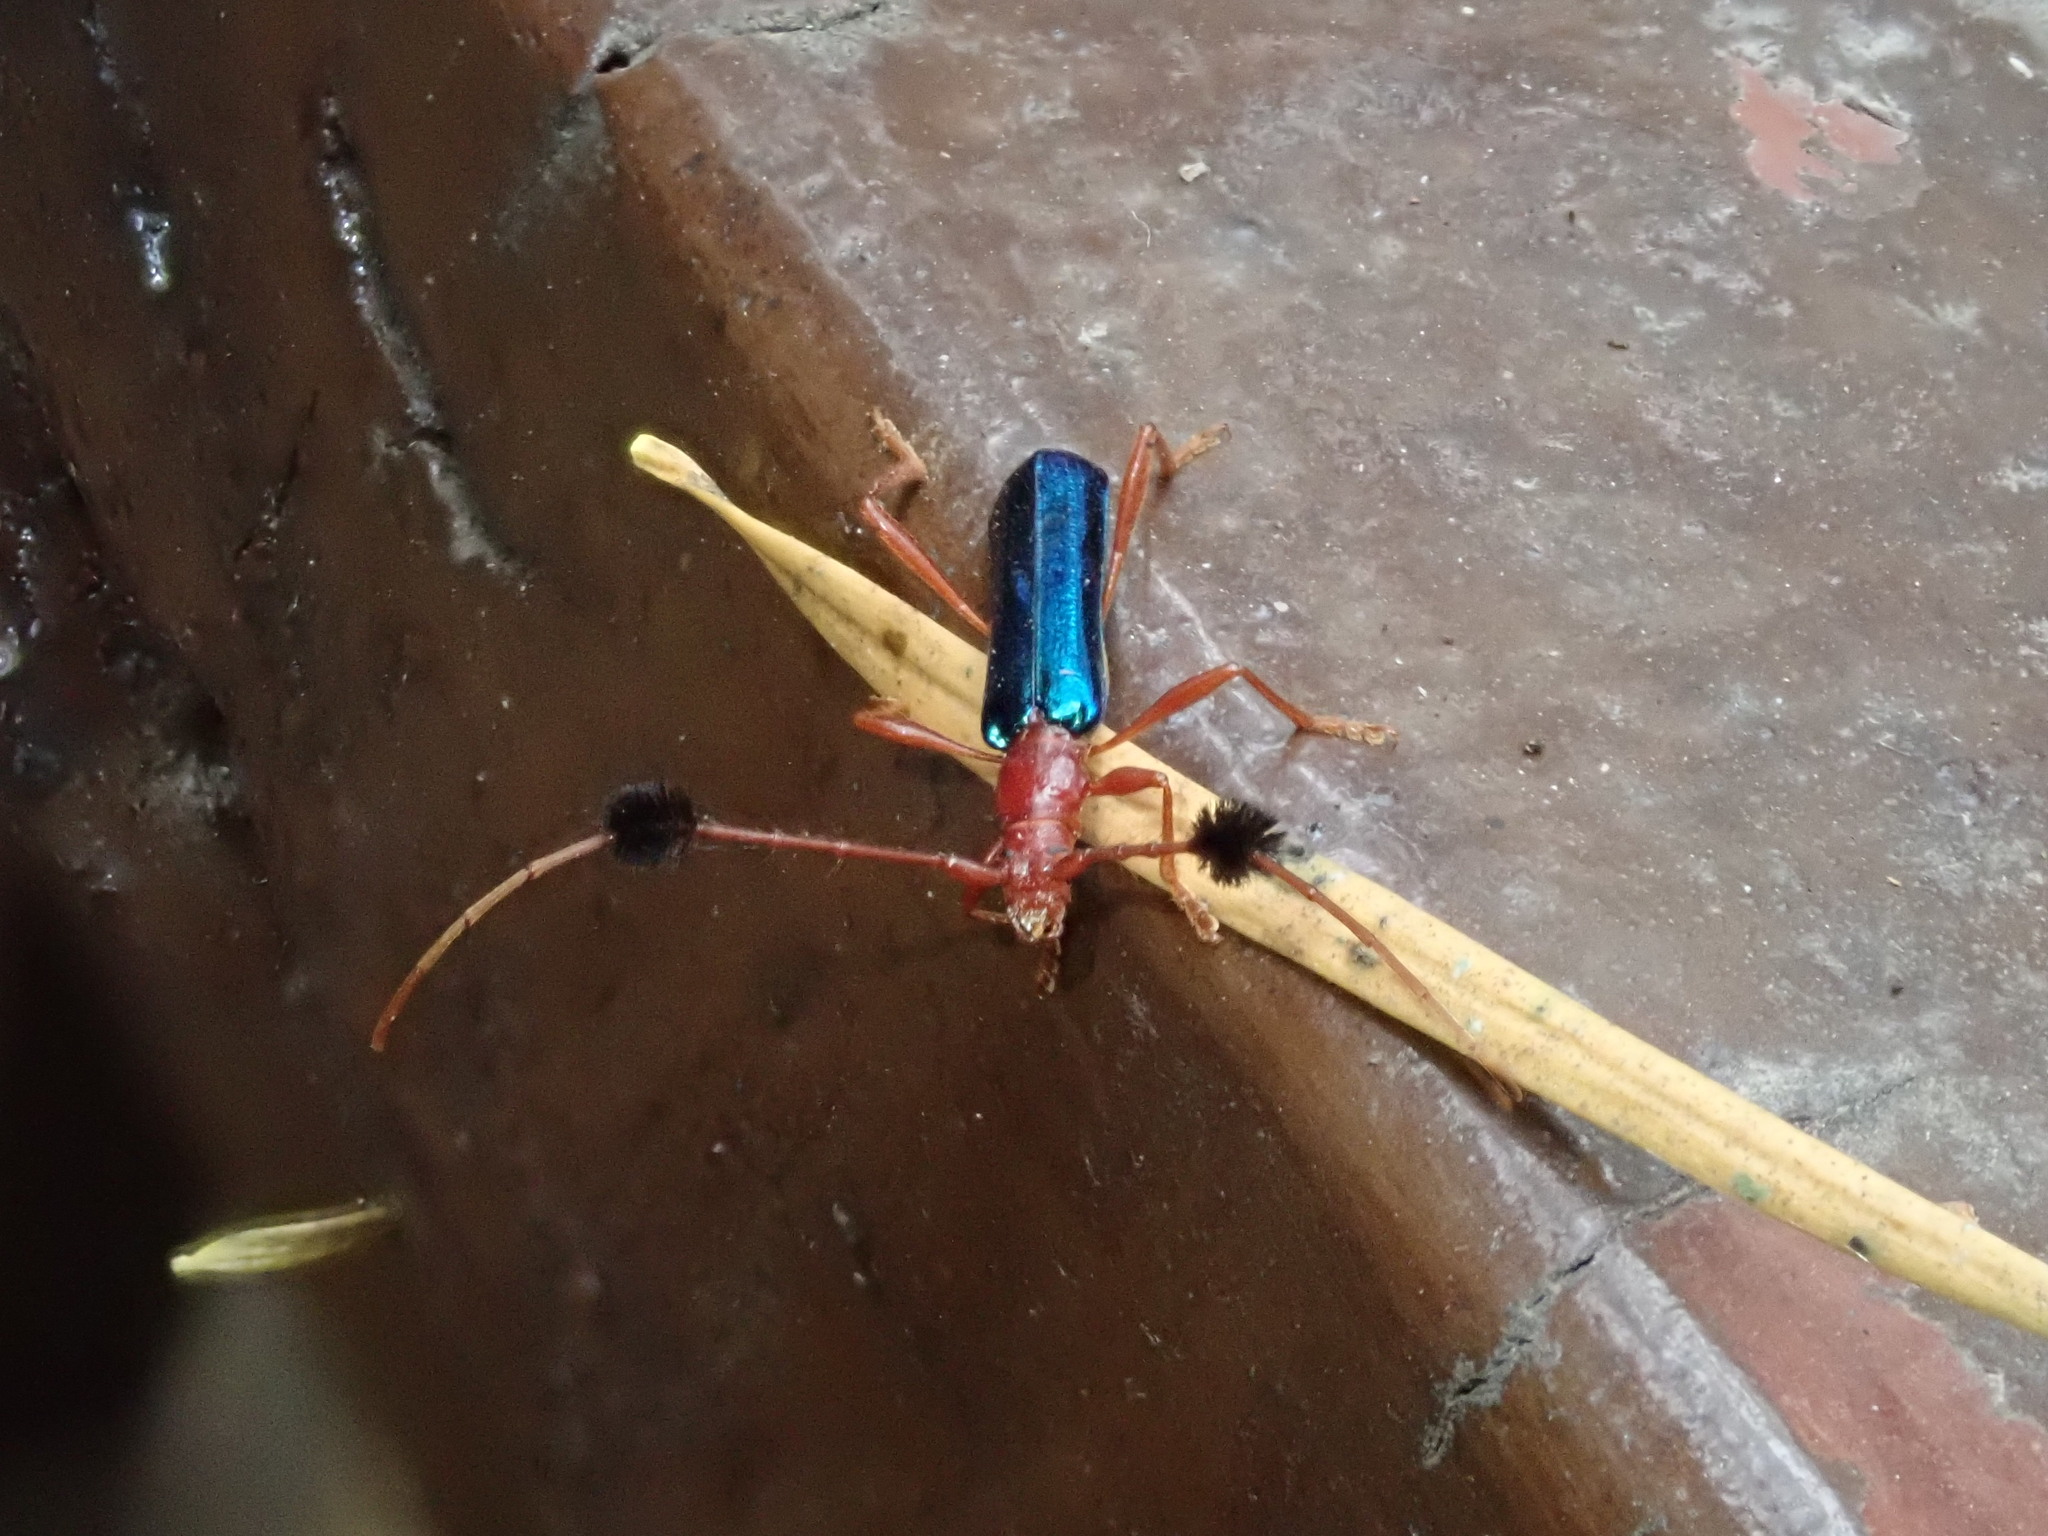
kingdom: Animalia
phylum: Arthropoda
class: Insecta
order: Coleoptera
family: Cerambycidae
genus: Paromoeocerus
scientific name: Paromoeocerus barbicornis
